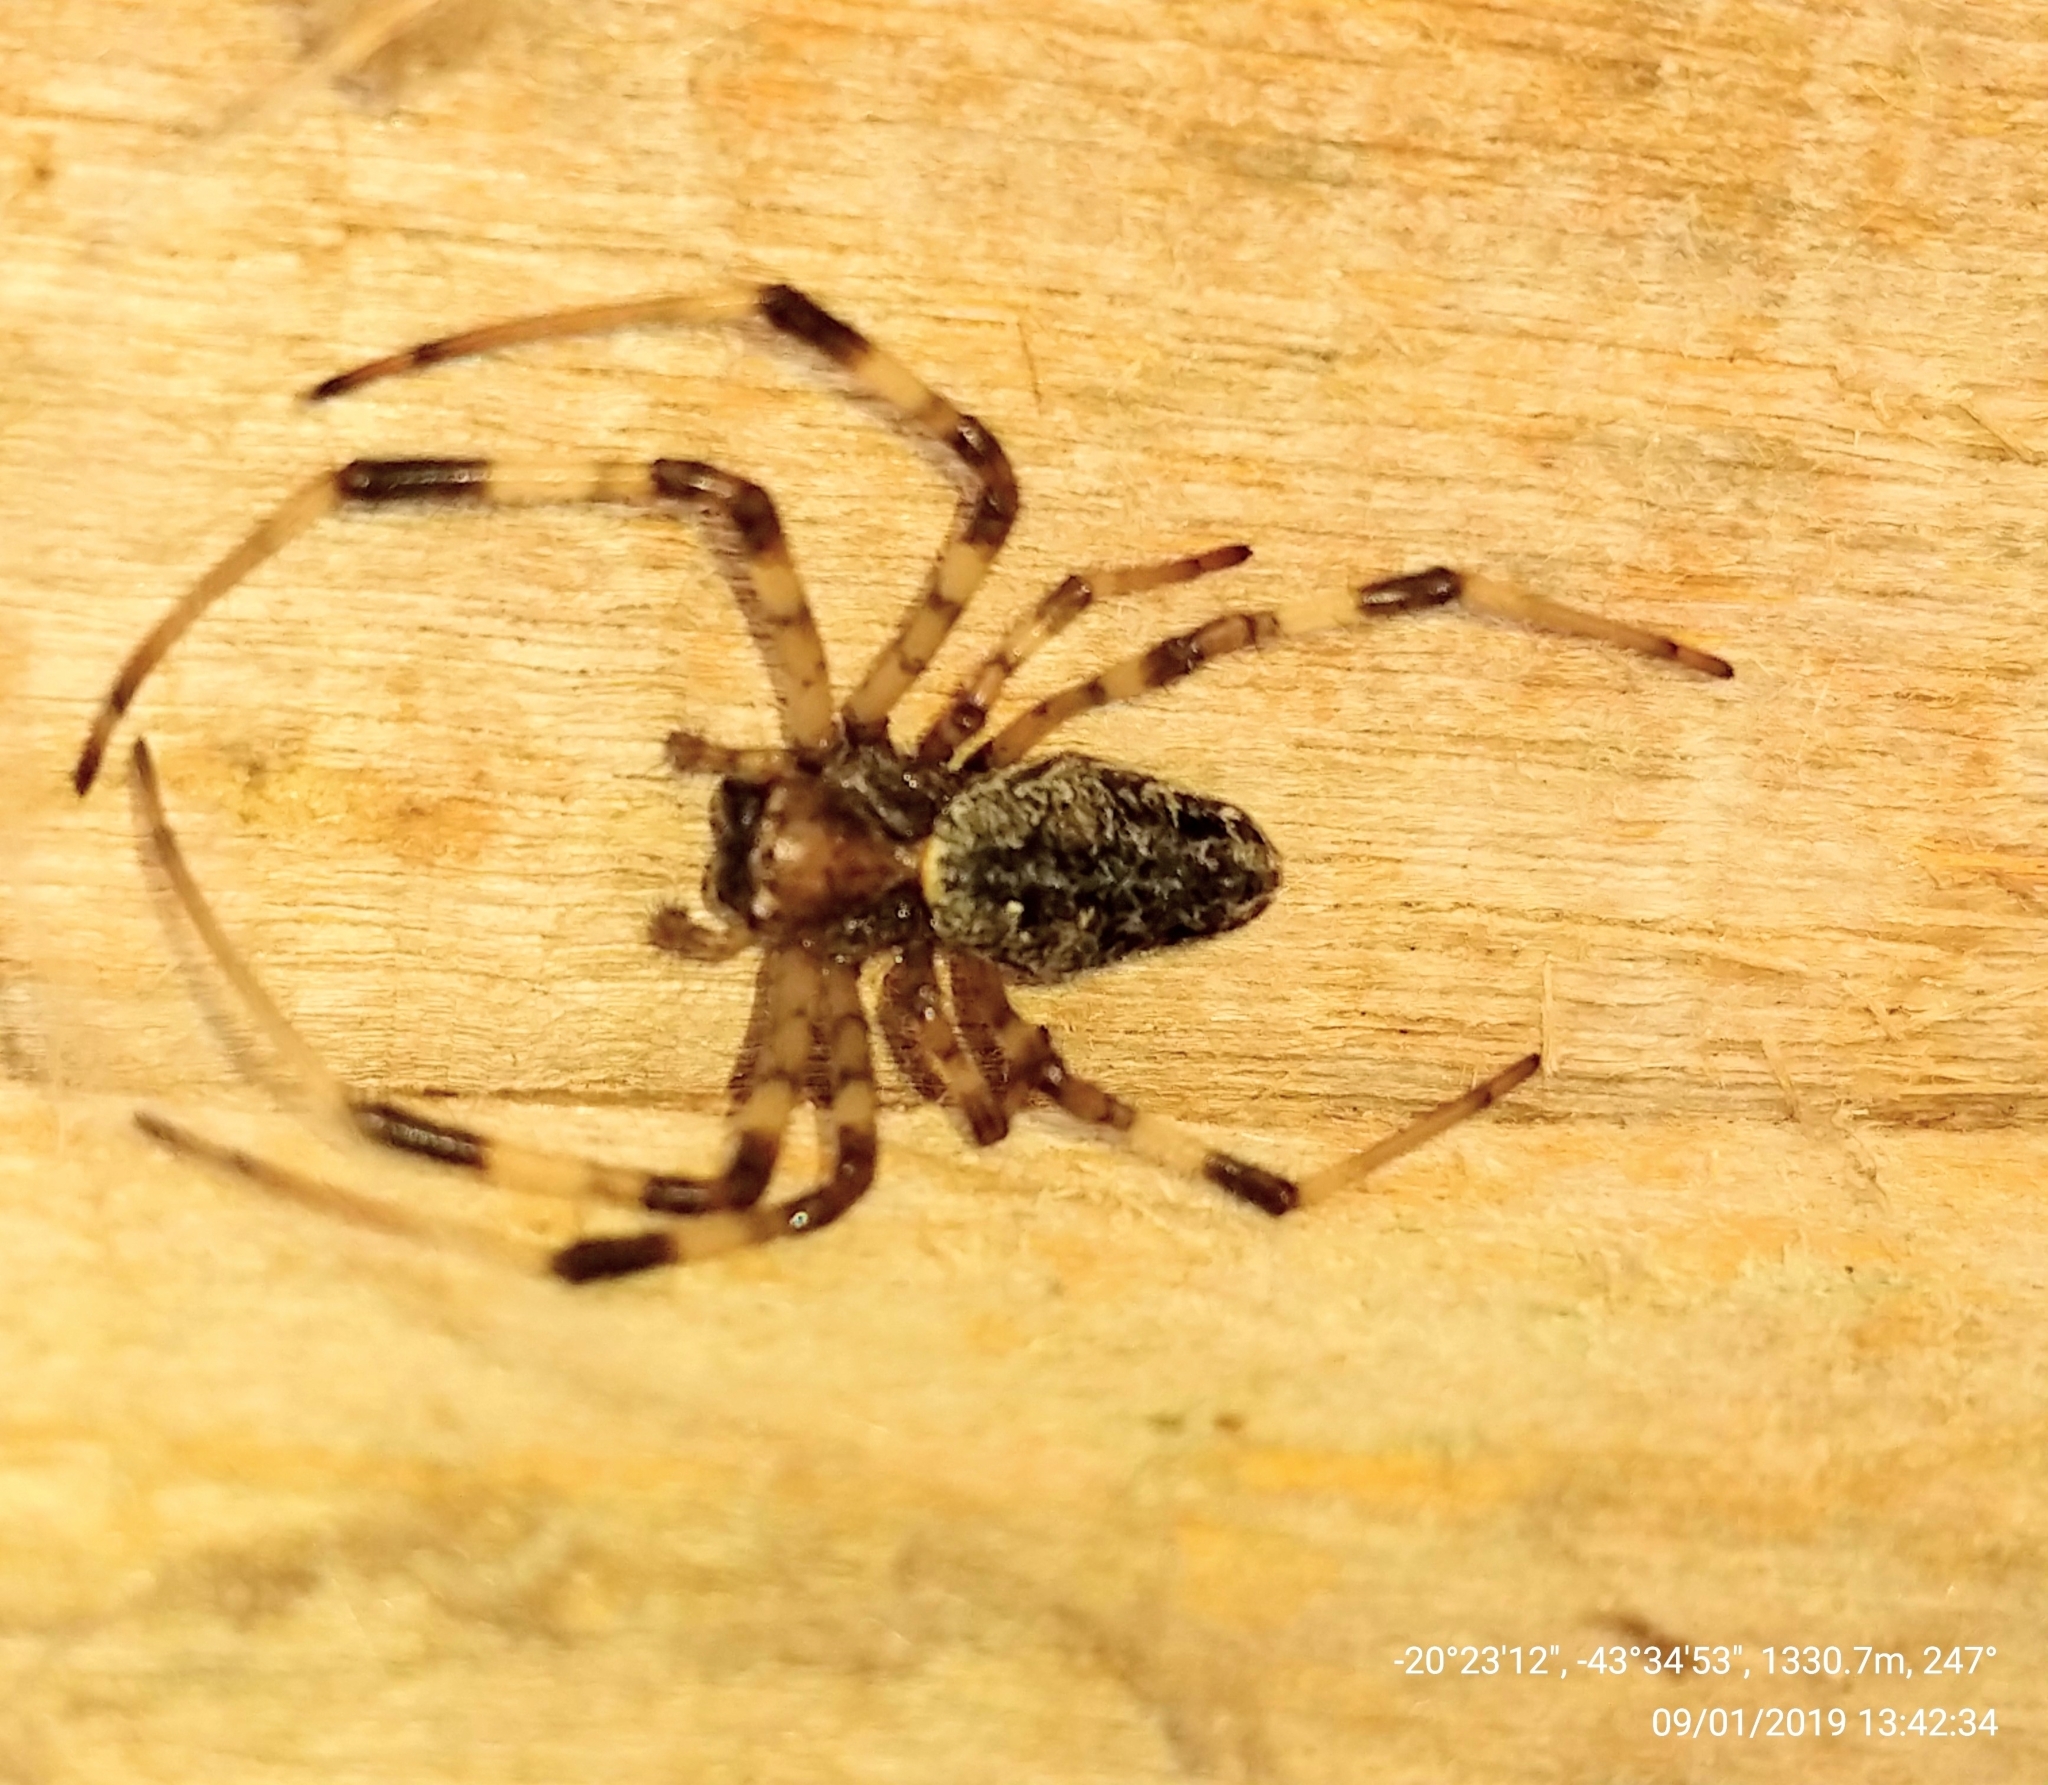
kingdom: Animalia
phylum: Arthropoda
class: Arachnida
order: Araneae
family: Araneidae
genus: Nephilingis
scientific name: Nephilingis cruentata
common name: African hermit spider
